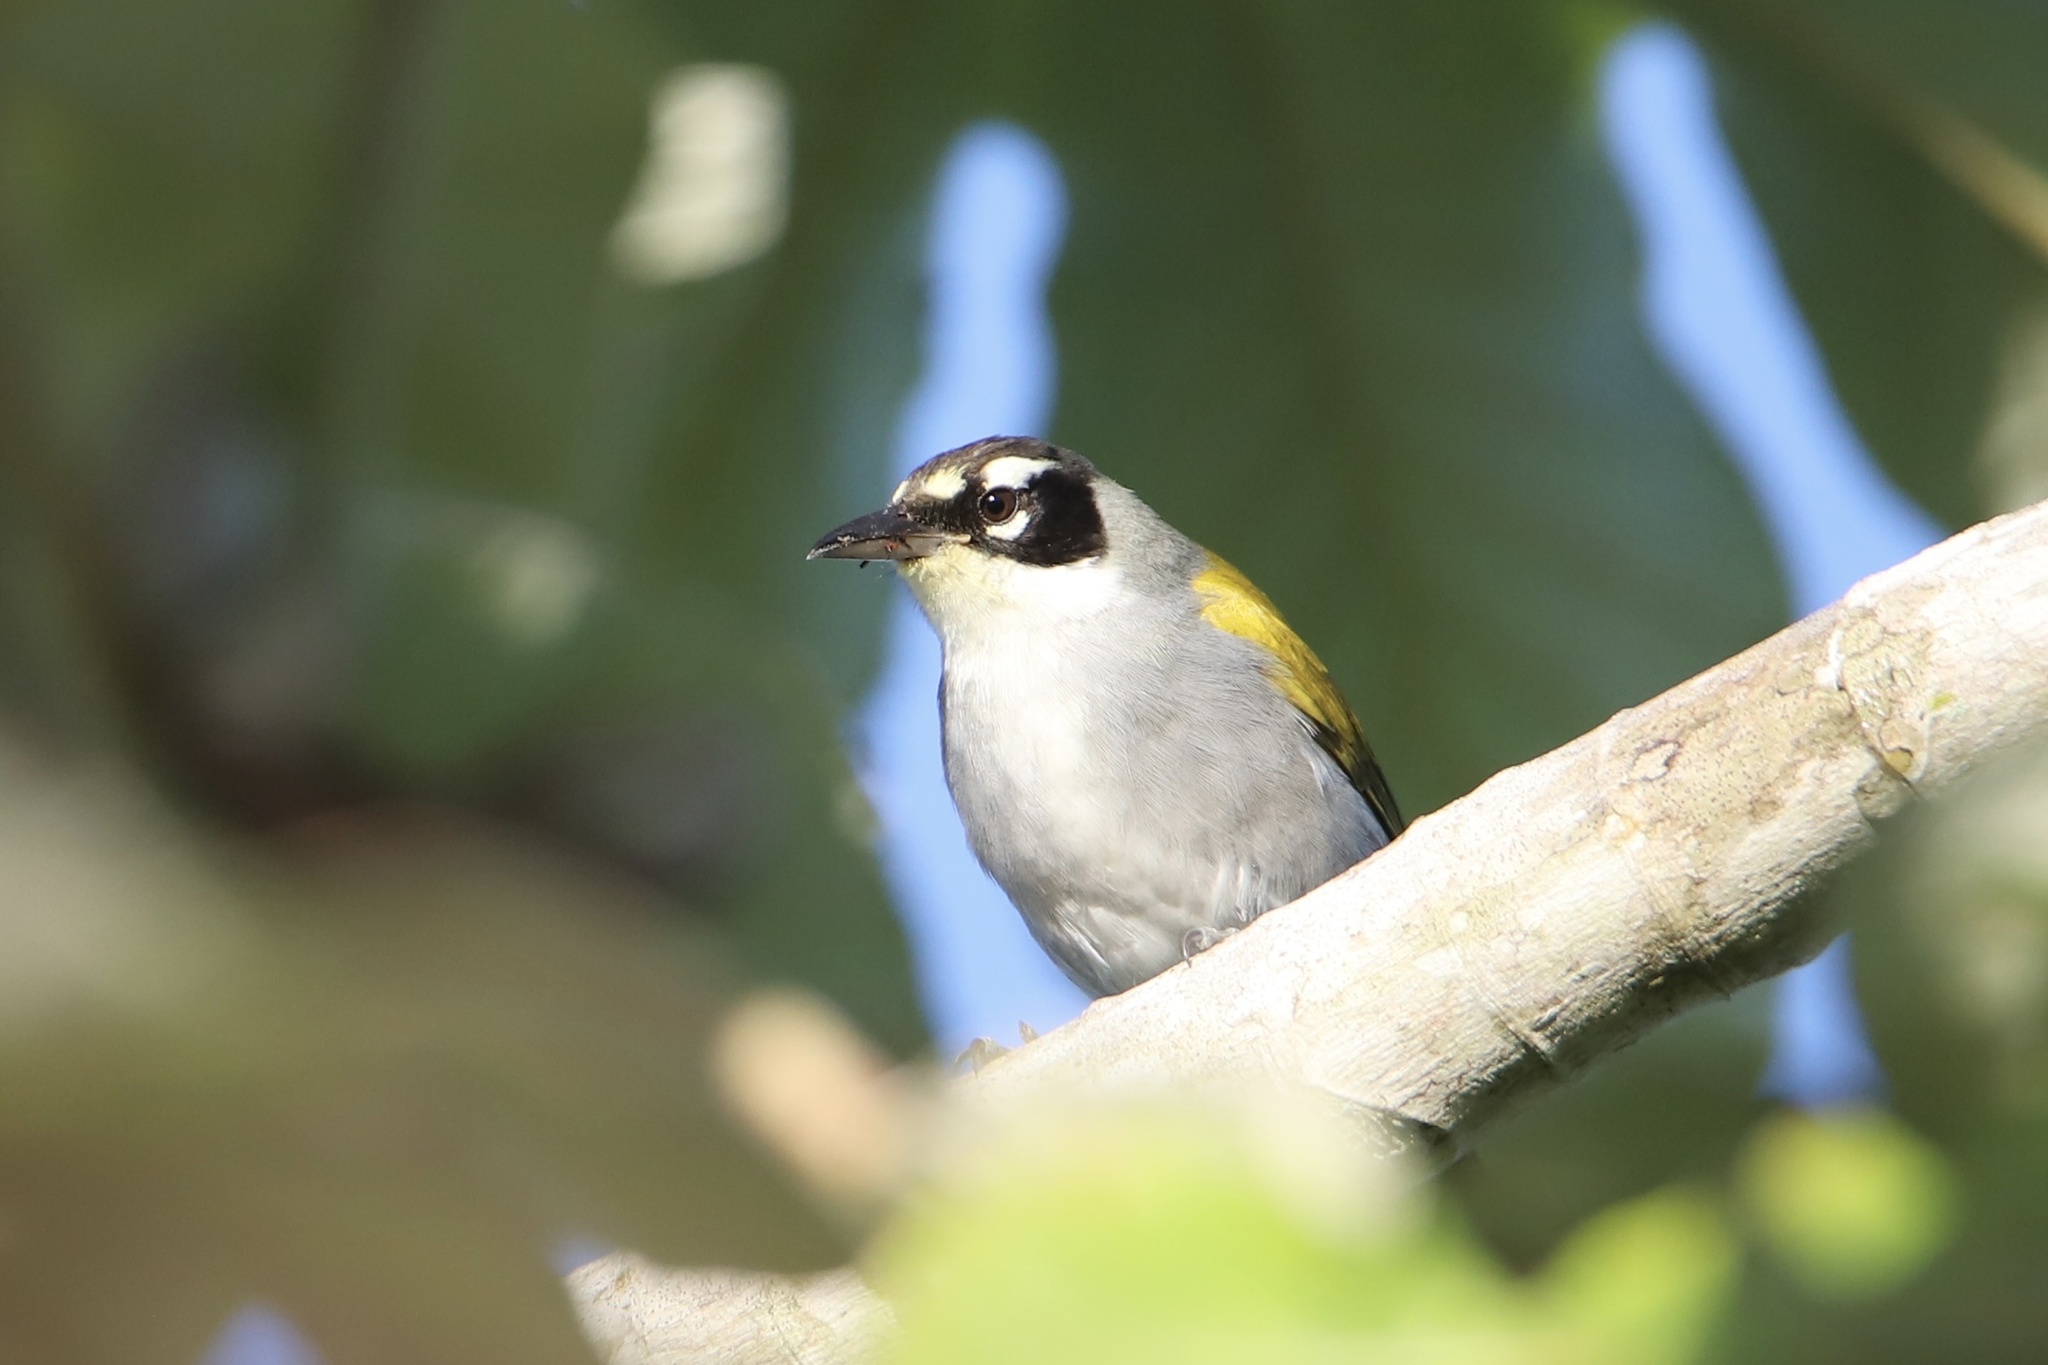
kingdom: Animalia
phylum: Chordata
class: Aves
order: Passeriformes
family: Phaenicophilidae
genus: Phaenicophilus
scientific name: Phaenicophilus palmarum
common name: Black-crowned palm-tanager
